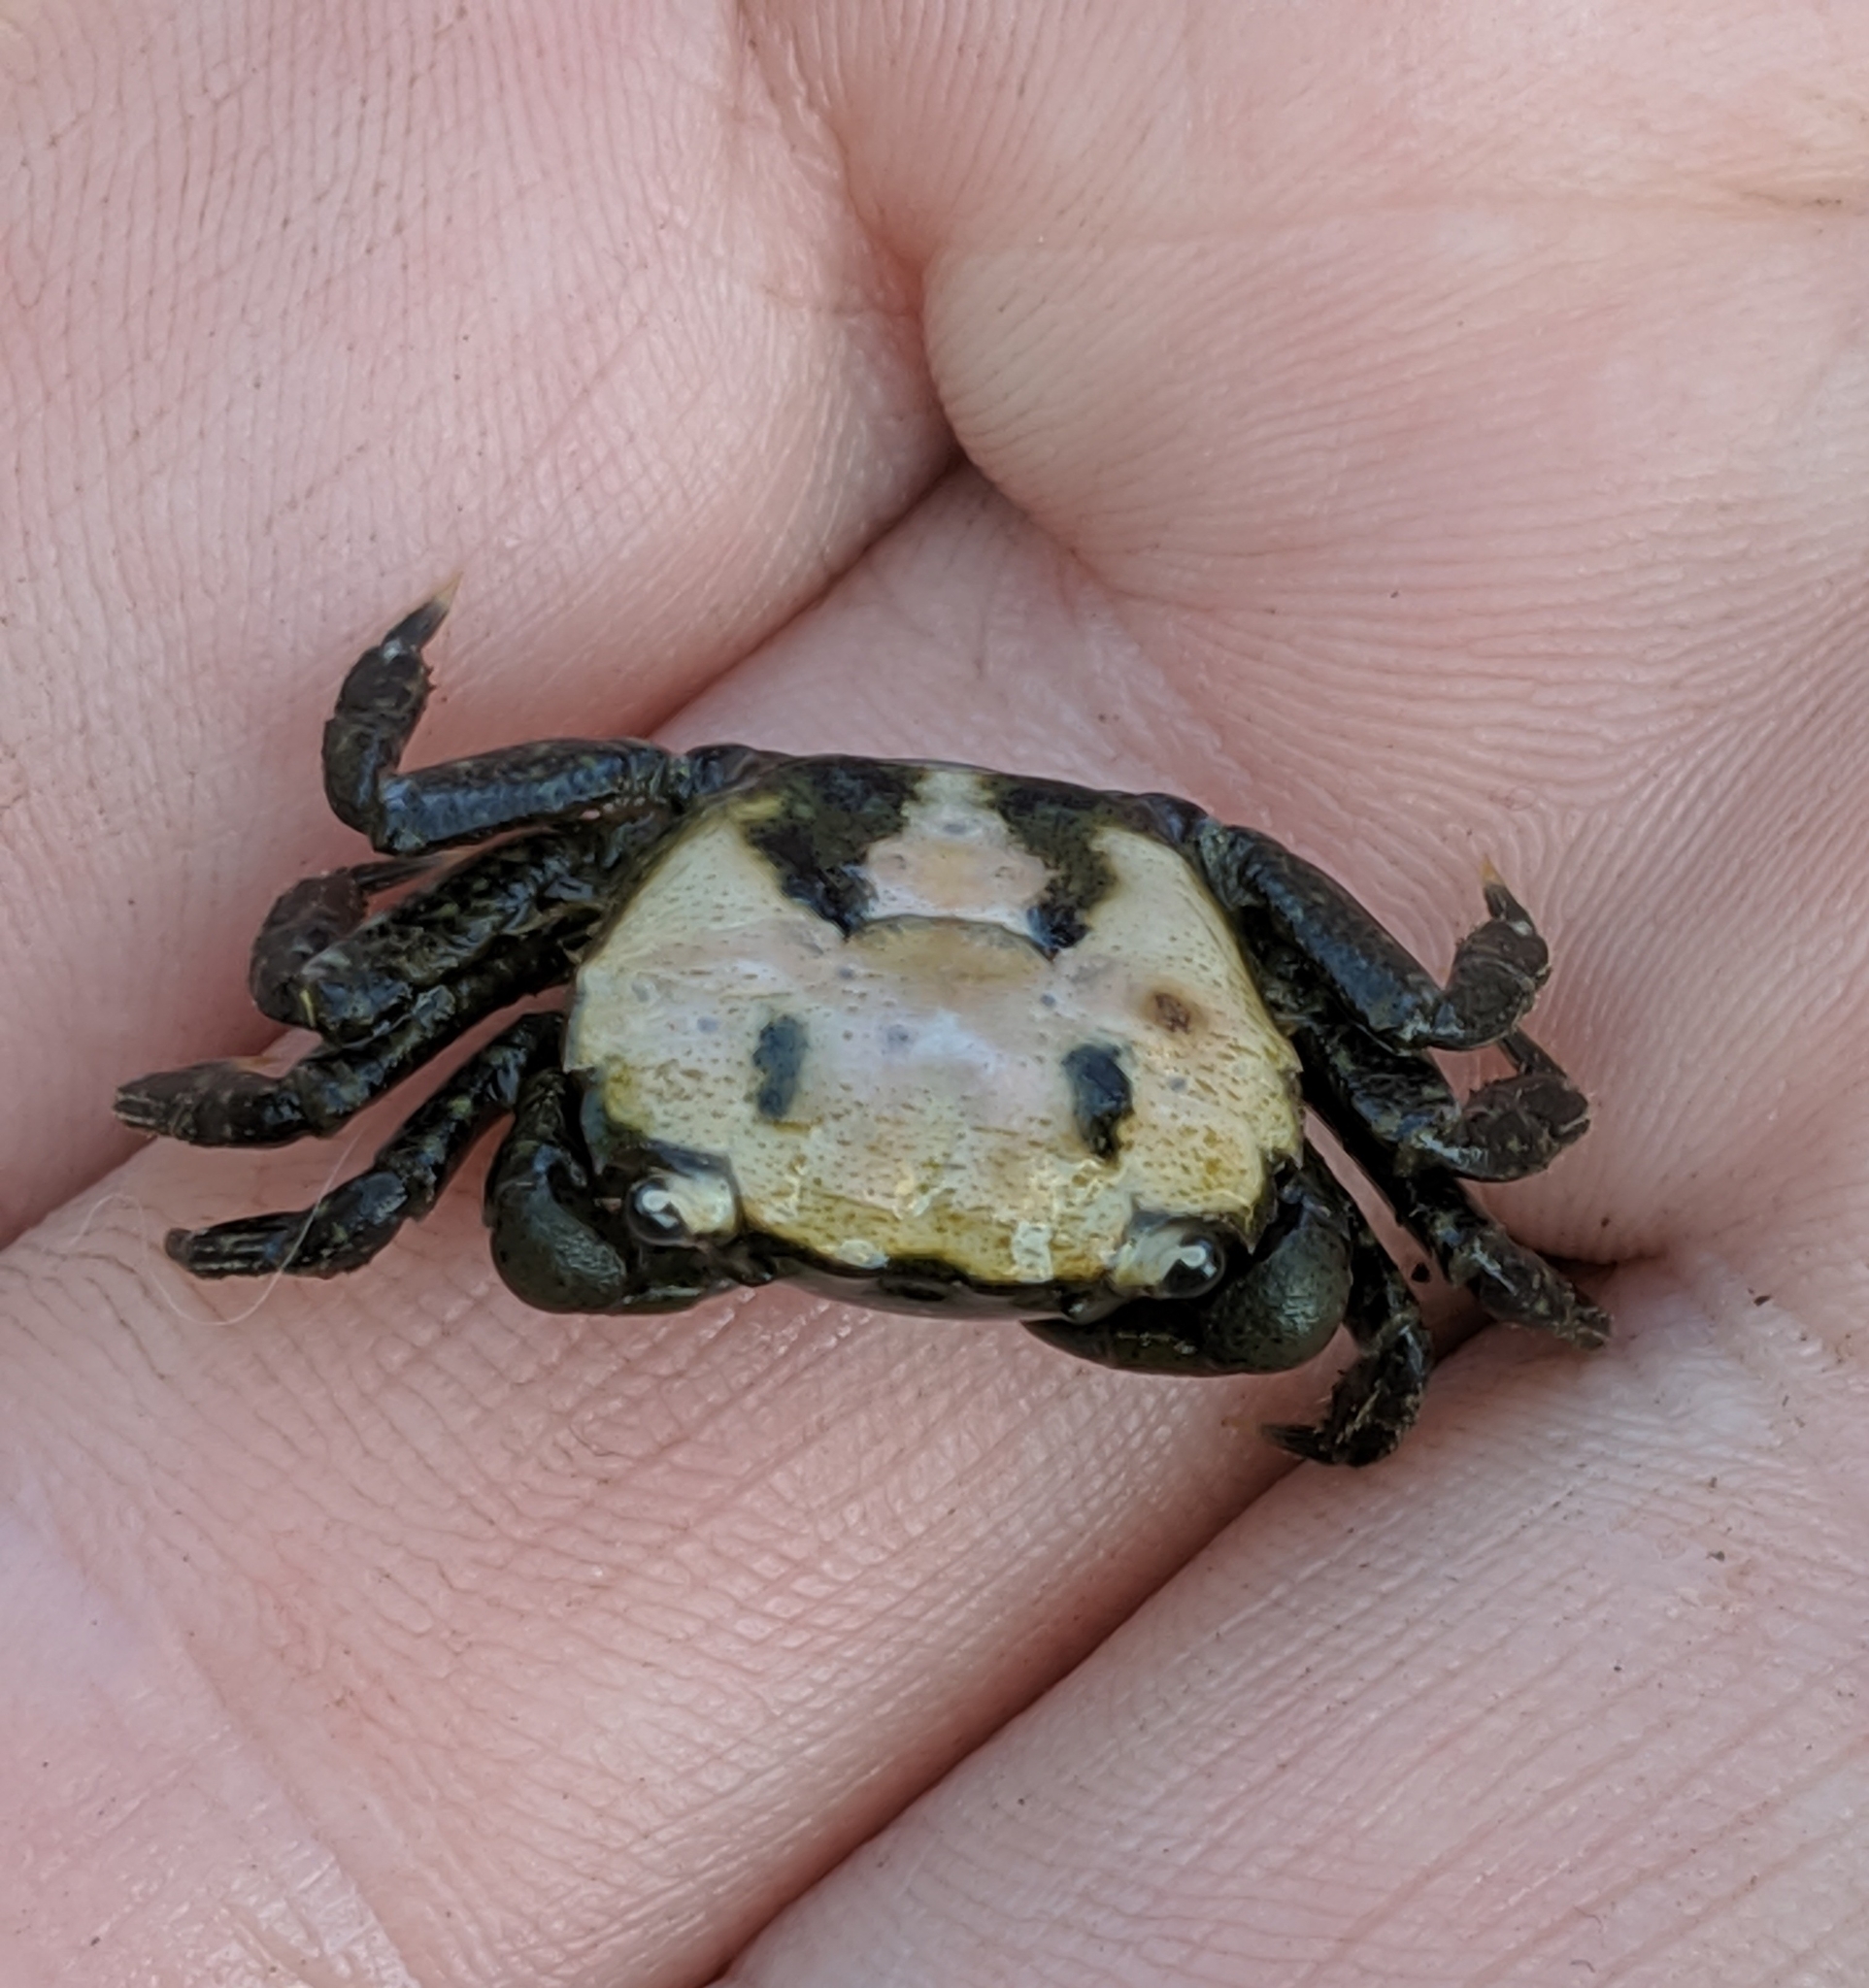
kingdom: Animalia
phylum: Arthropoda
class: Malacostraca
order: Decapoda
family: Varunidae
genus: Hemigrapsus
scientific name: Hemigrapsus oregonensis
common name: Yellow shore crab
